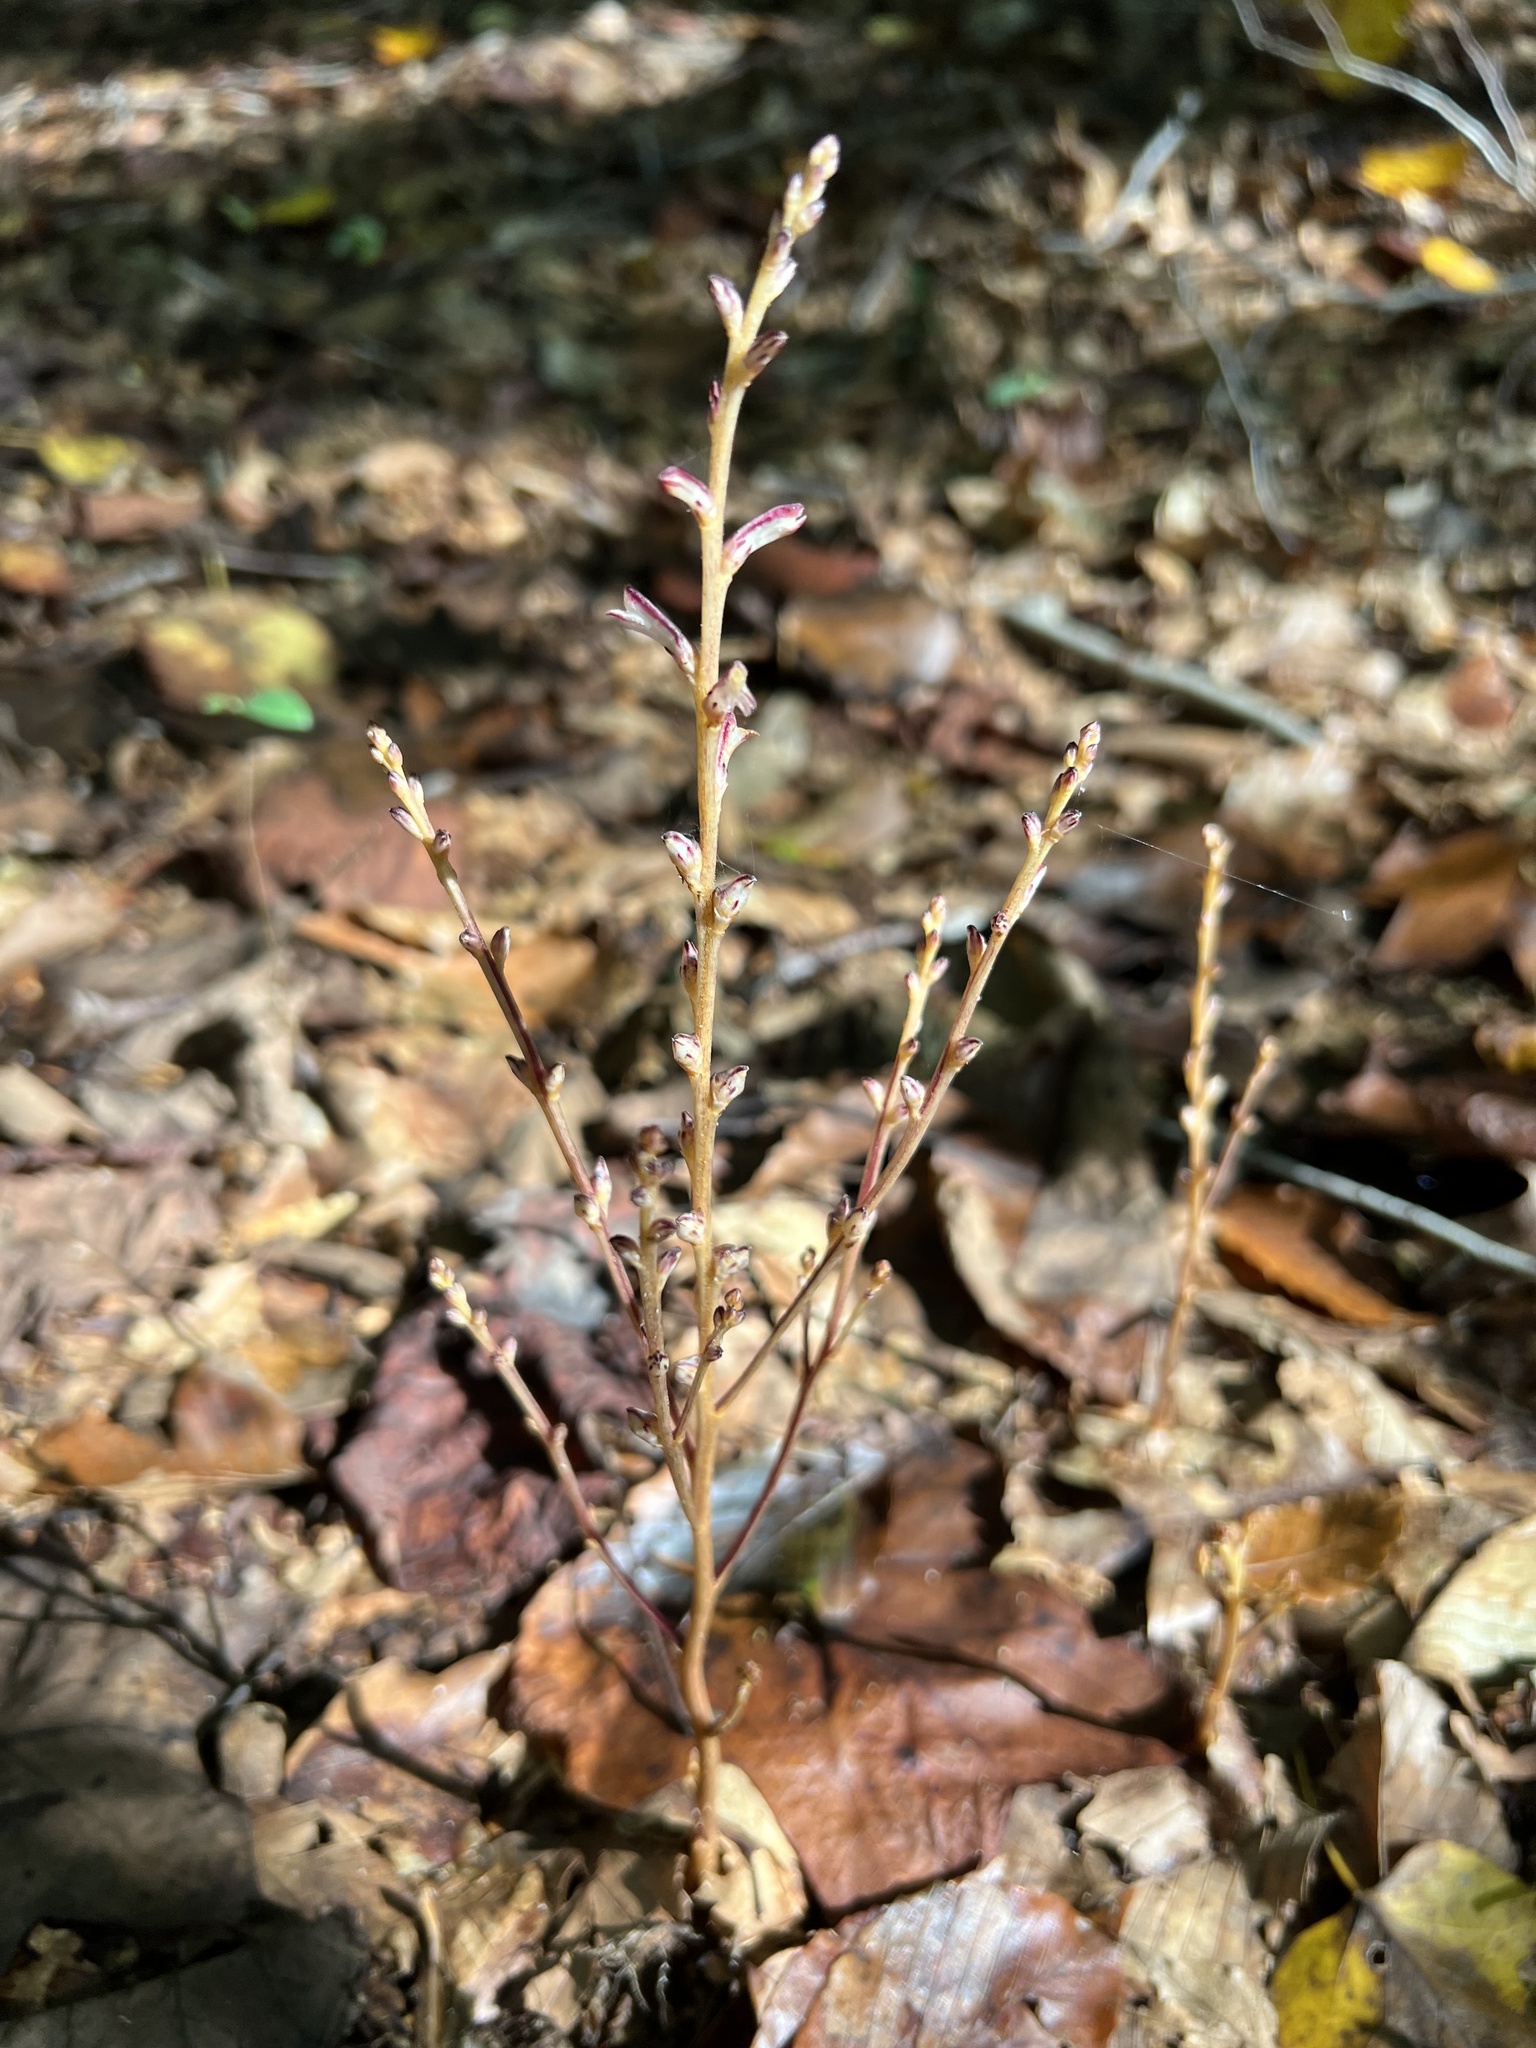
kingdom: Plantae
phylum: Tracheophyta
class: Magnoliopsida
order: Lamiales
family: Orobanchaceae
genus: Epifagus
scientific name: Epifagus virginiana
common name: Beechdrops
